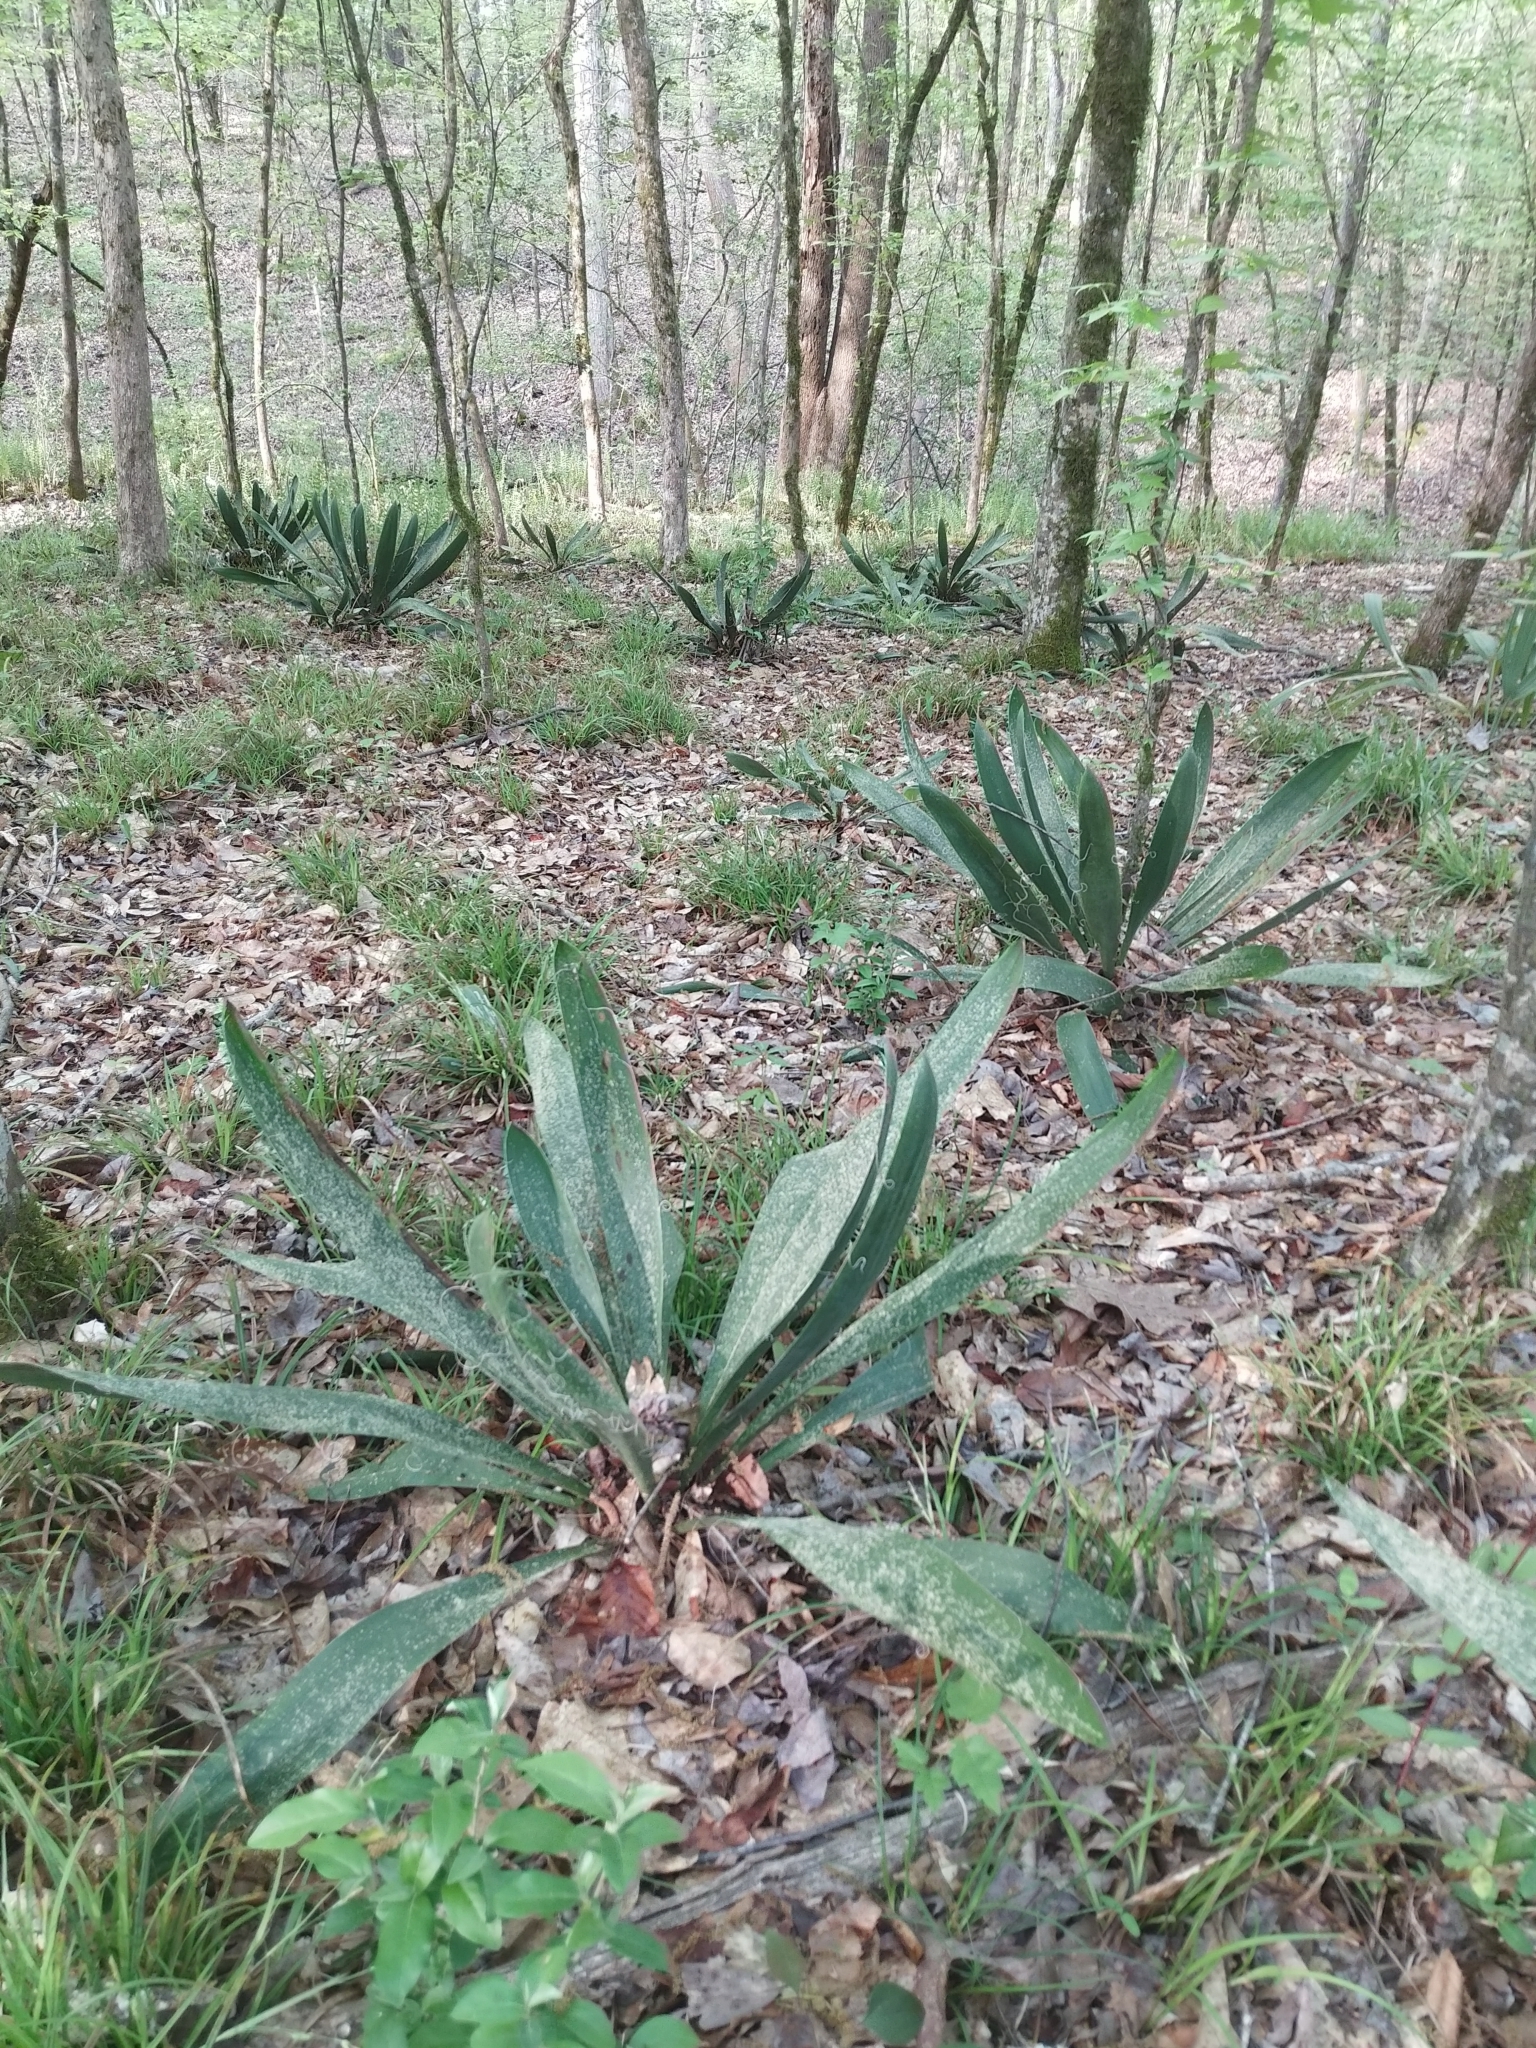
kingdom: Plantae
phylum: Tracheophyta
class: Liliopsida
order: Asparagales
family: Asparagaceae
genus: Yucca
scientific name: Yucca filamentosa
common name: Adam's-needle
